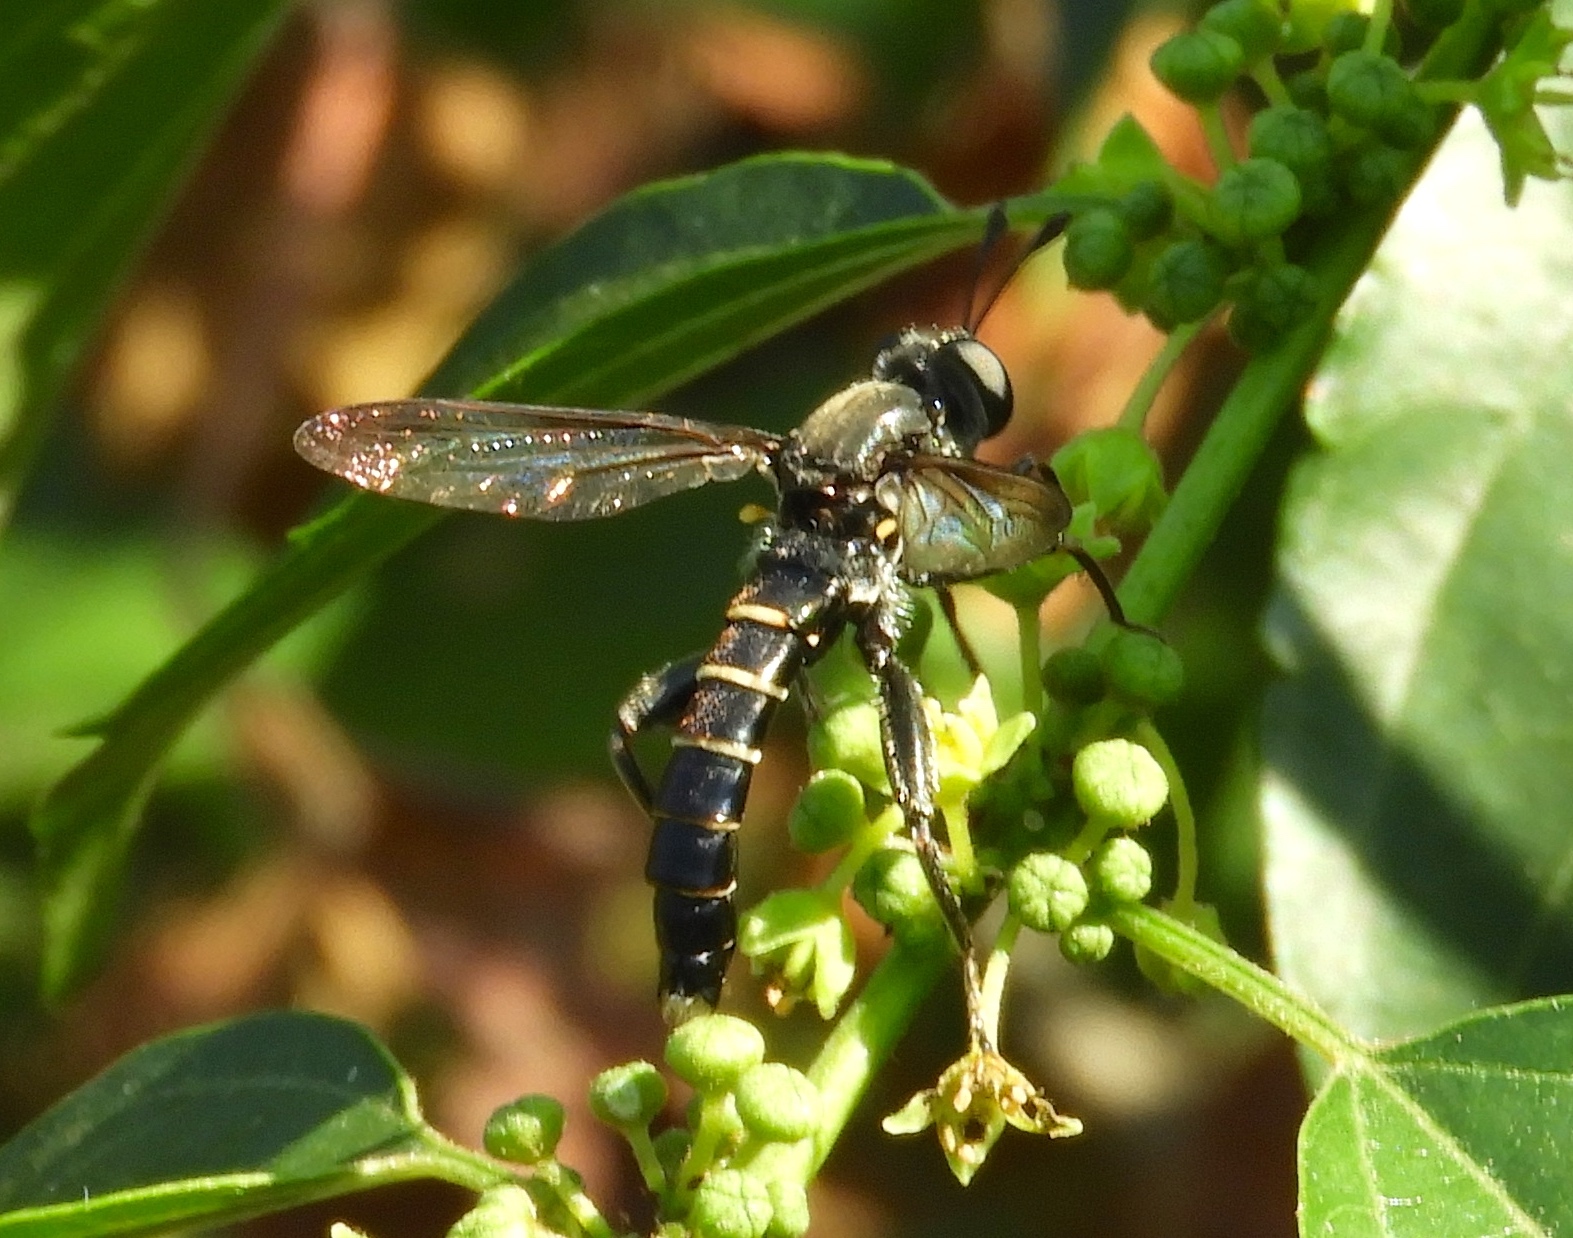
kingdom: Animalia
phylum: Arthropoda
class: Insecta
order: Diptera
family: Mydidae
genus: Mydas
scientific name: Mydas
